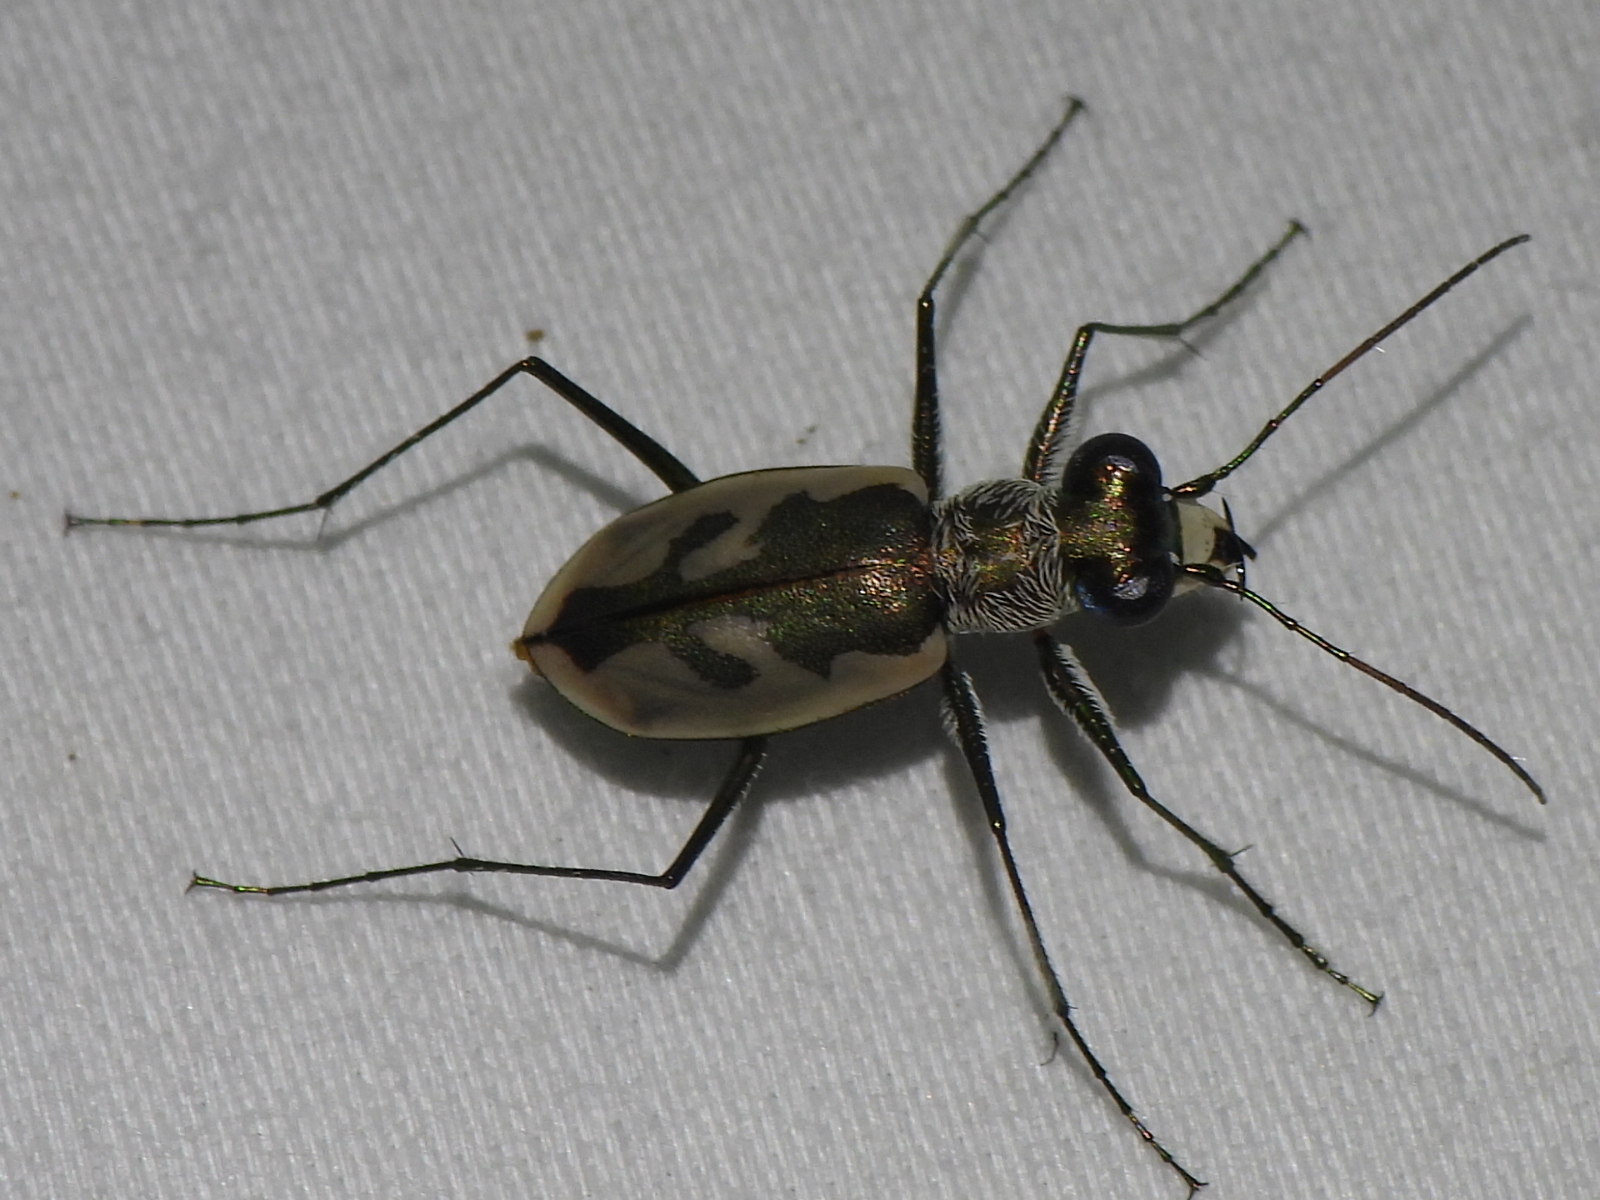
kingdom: Animalia
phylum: Arthropoda
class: Insecta
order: Coleoptera
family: Carabidae
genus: Eunota
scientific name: Eunota pamphila
